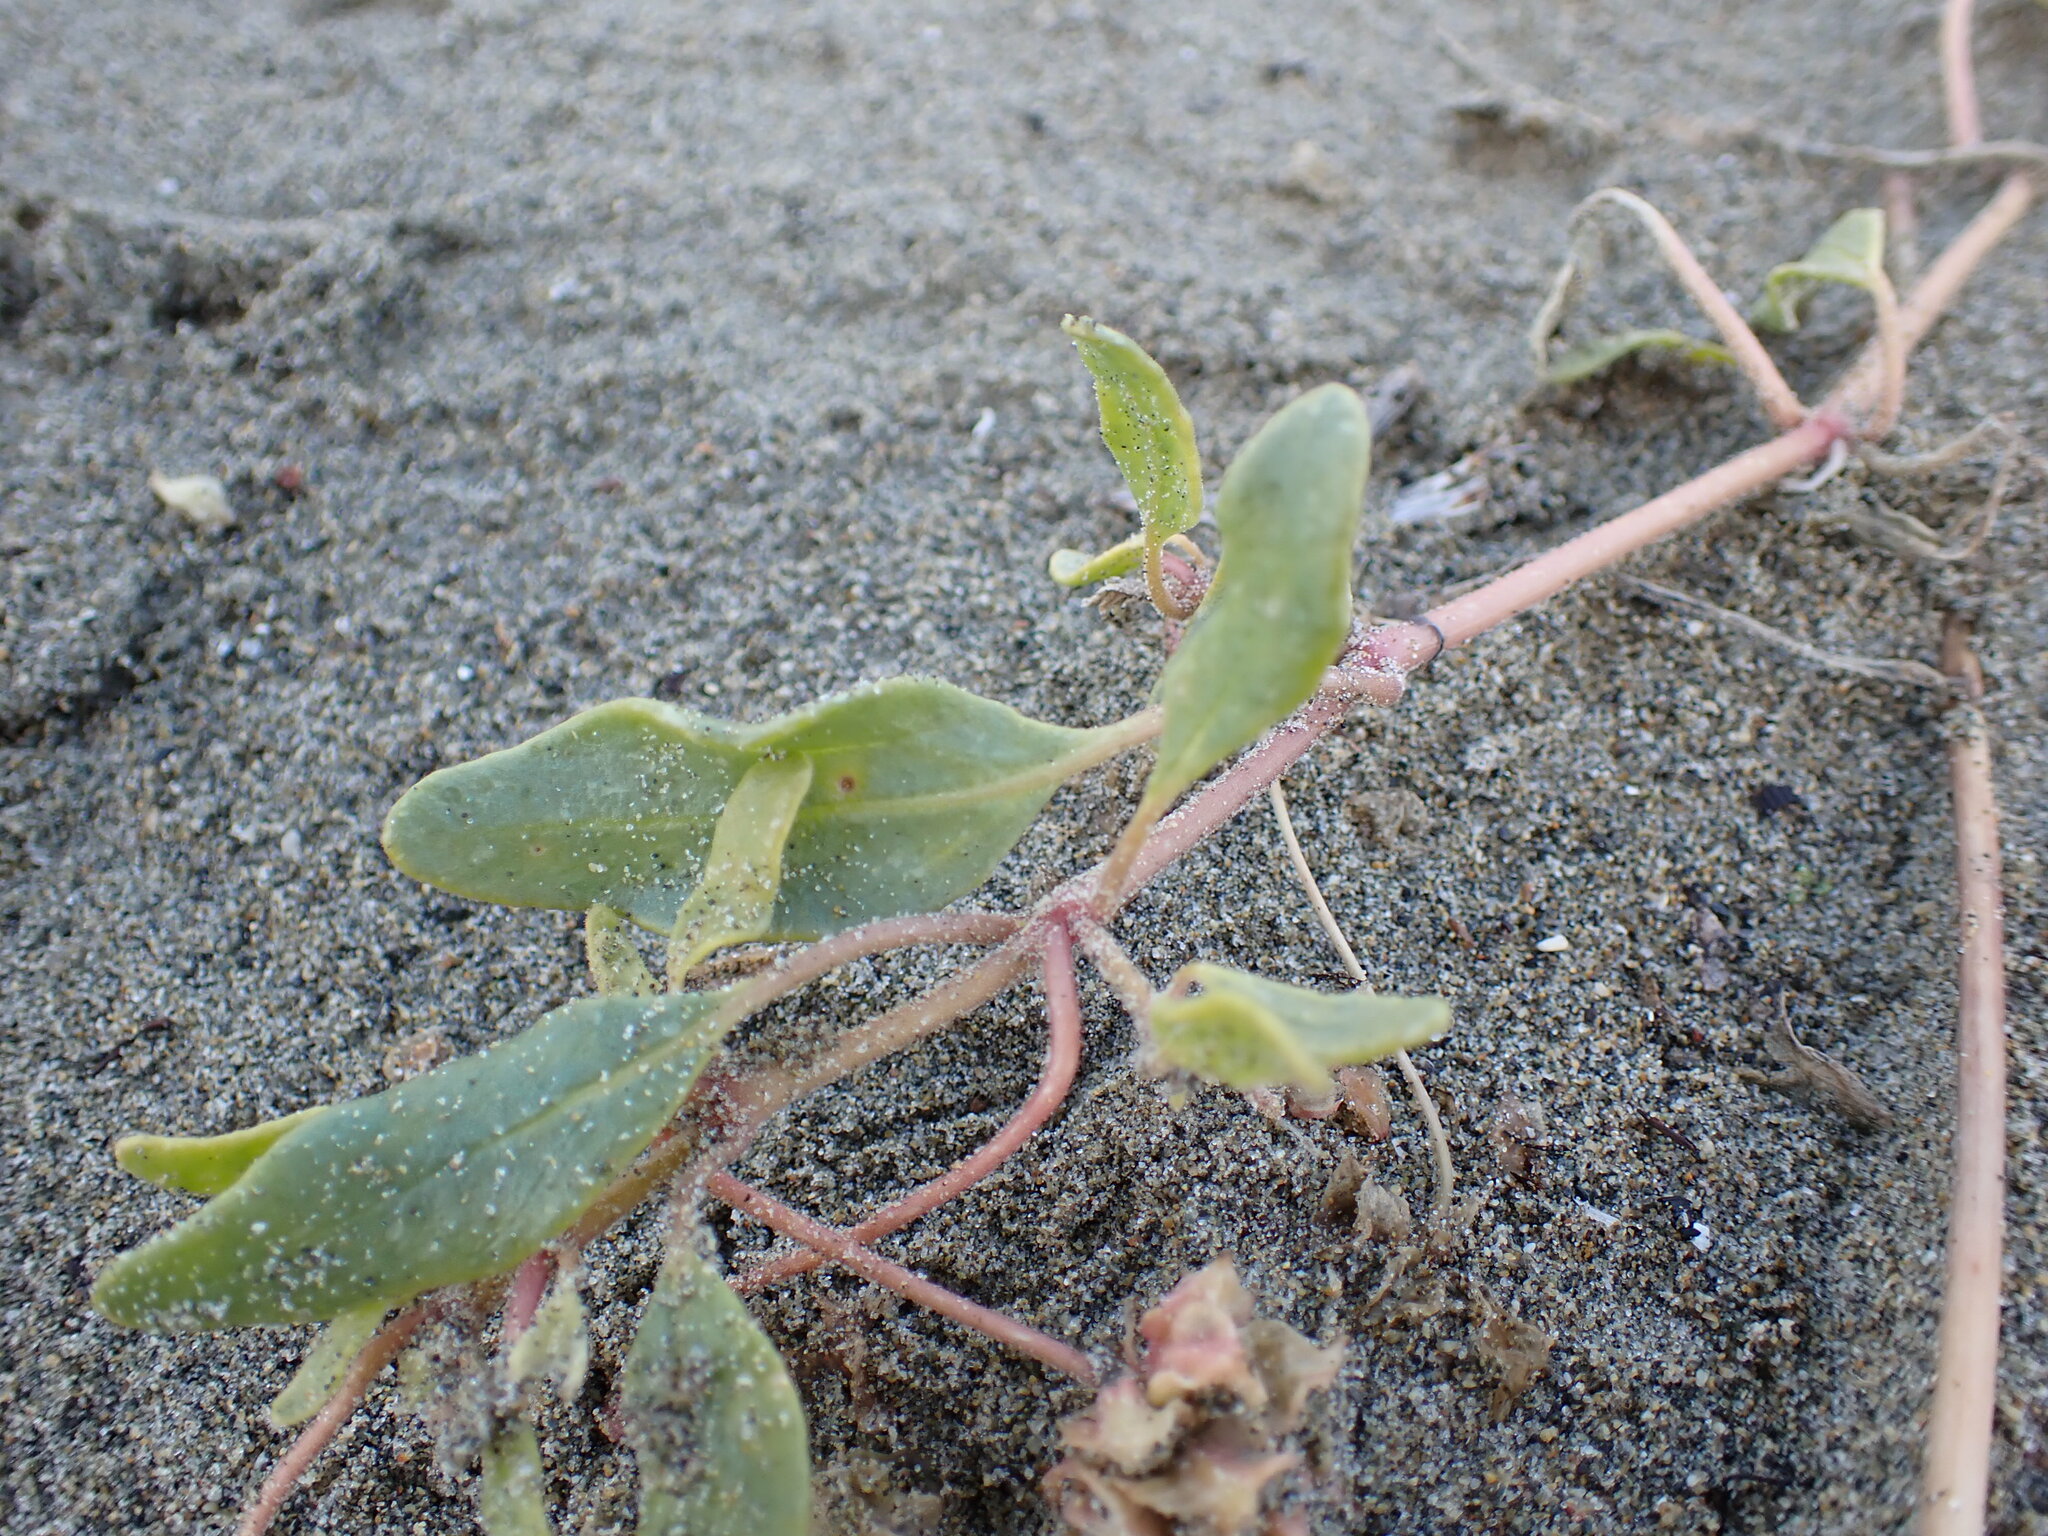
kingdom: Plantae
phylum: Tracheophyta
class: Magnoliopsida
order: Caryophyllales
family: Nyctaginaceae
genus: Abronia
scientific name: Abronia umbellata
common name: Sand-verbena
